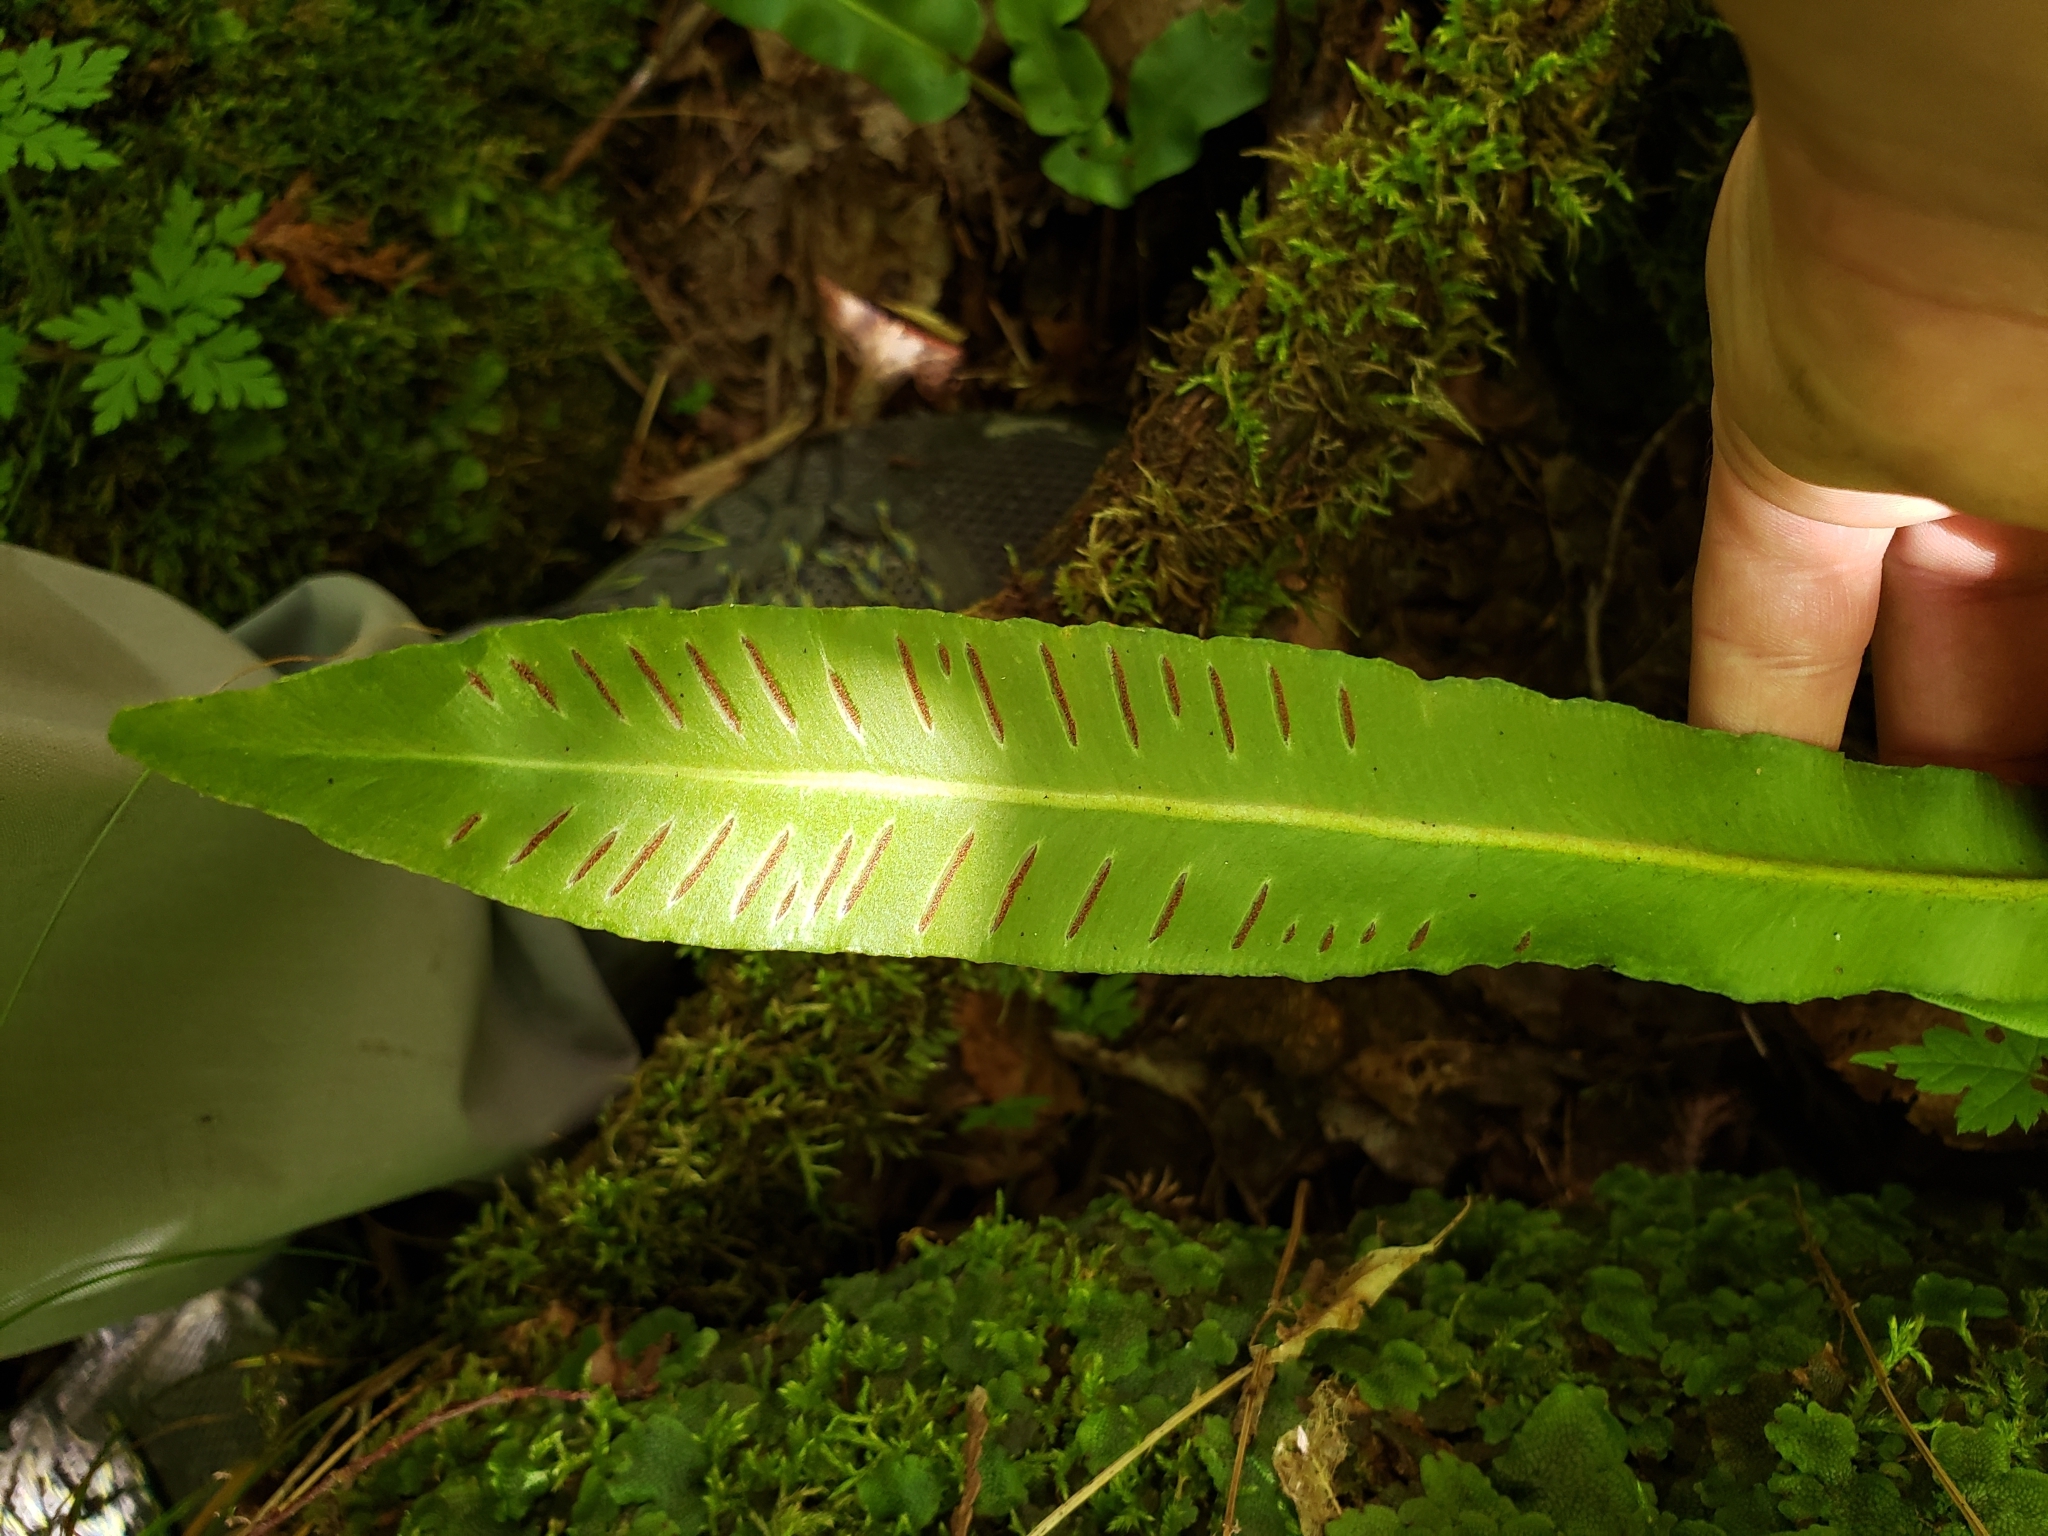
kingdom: Plantae
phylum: Tracheophyta
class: Polypodiopsida
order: Polypodiales
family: Aspleniaceae
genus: Asplenium
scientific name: Asplenium scolopendrium
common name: Hart's-tongue fern
